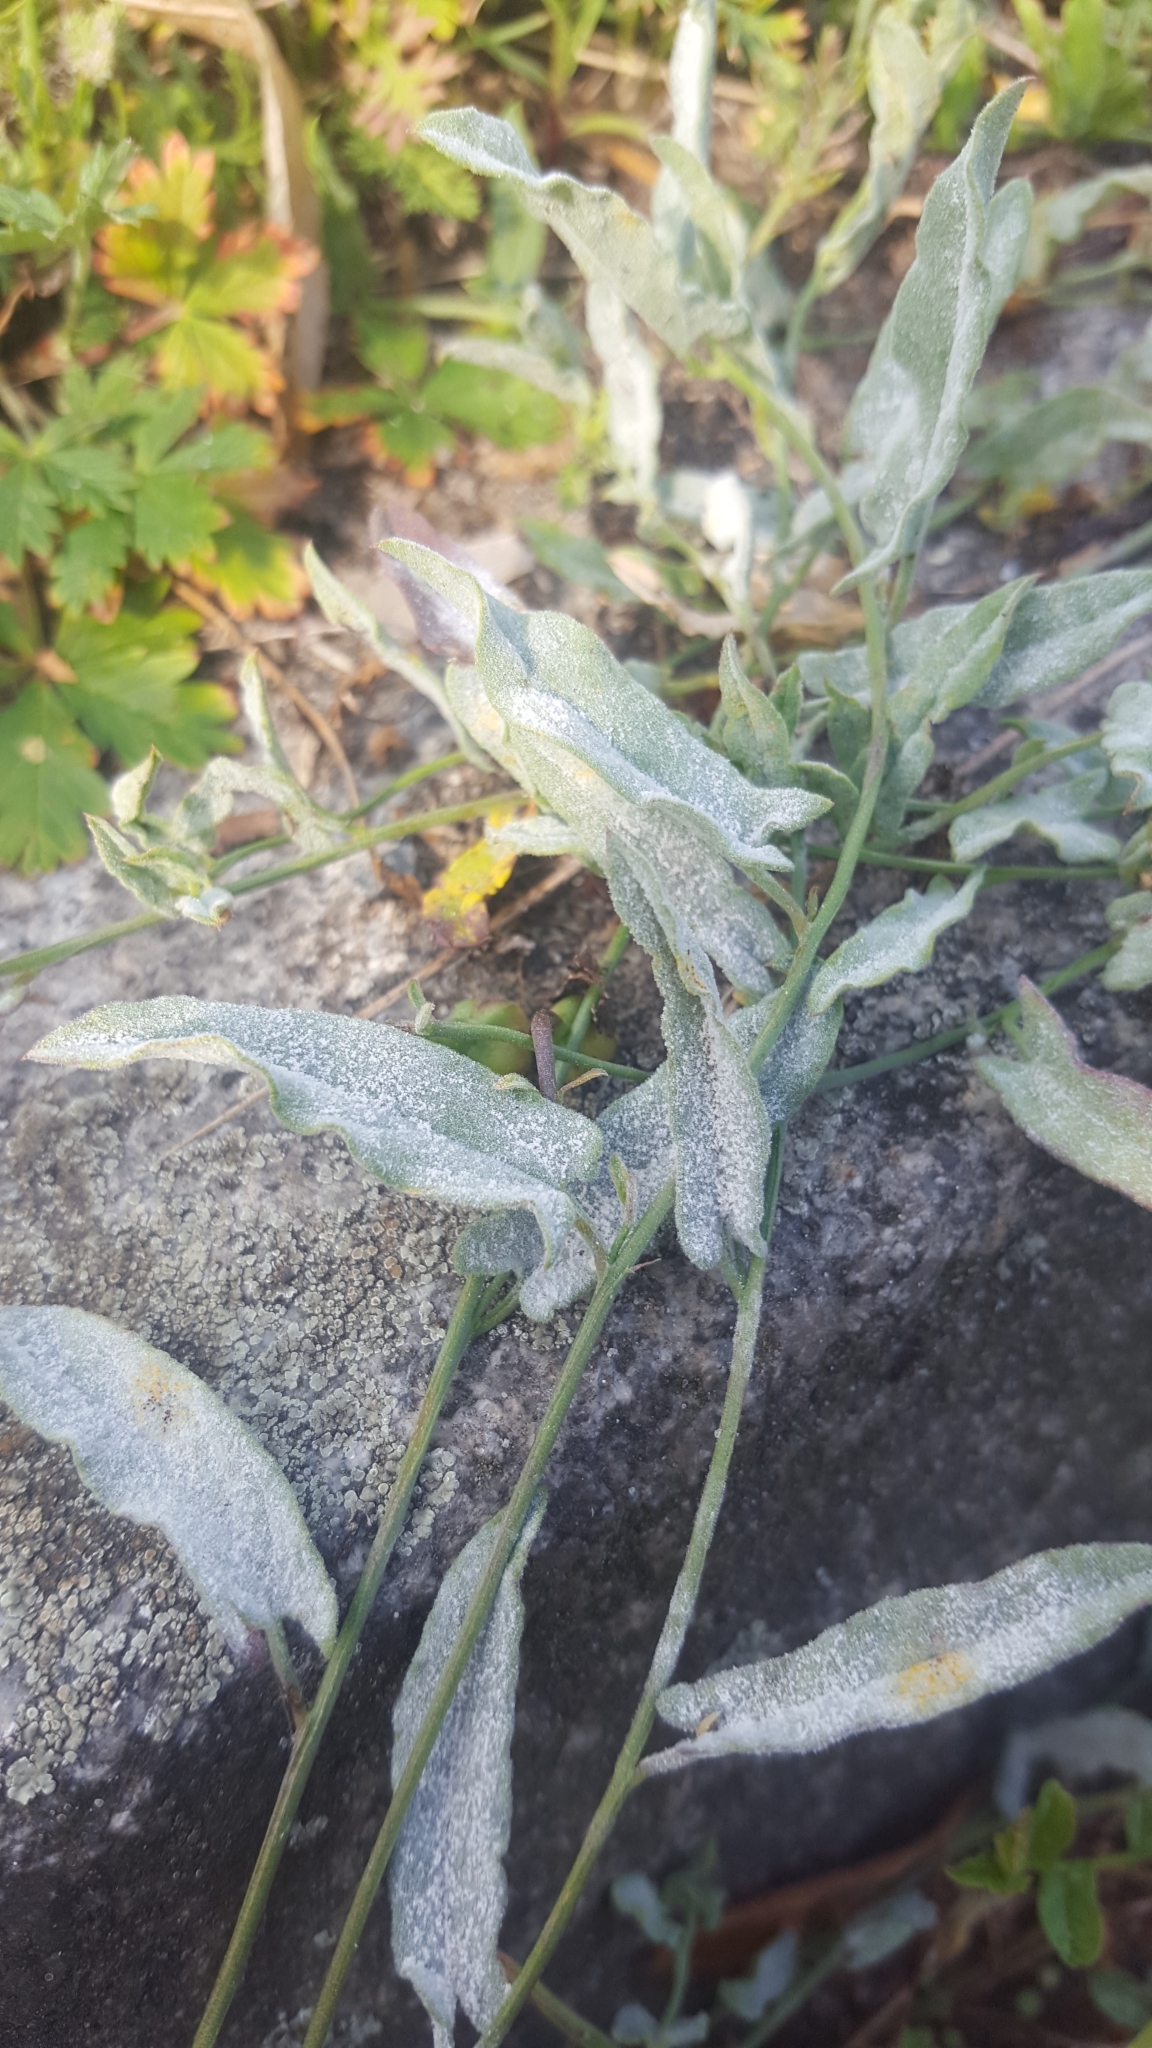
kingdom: Fungi
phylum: Ascomycota
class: Leotiomycetes
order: Helotiales
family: Erysiphaceae
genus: Erysiphe
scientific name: Erysiphe convolvuli
